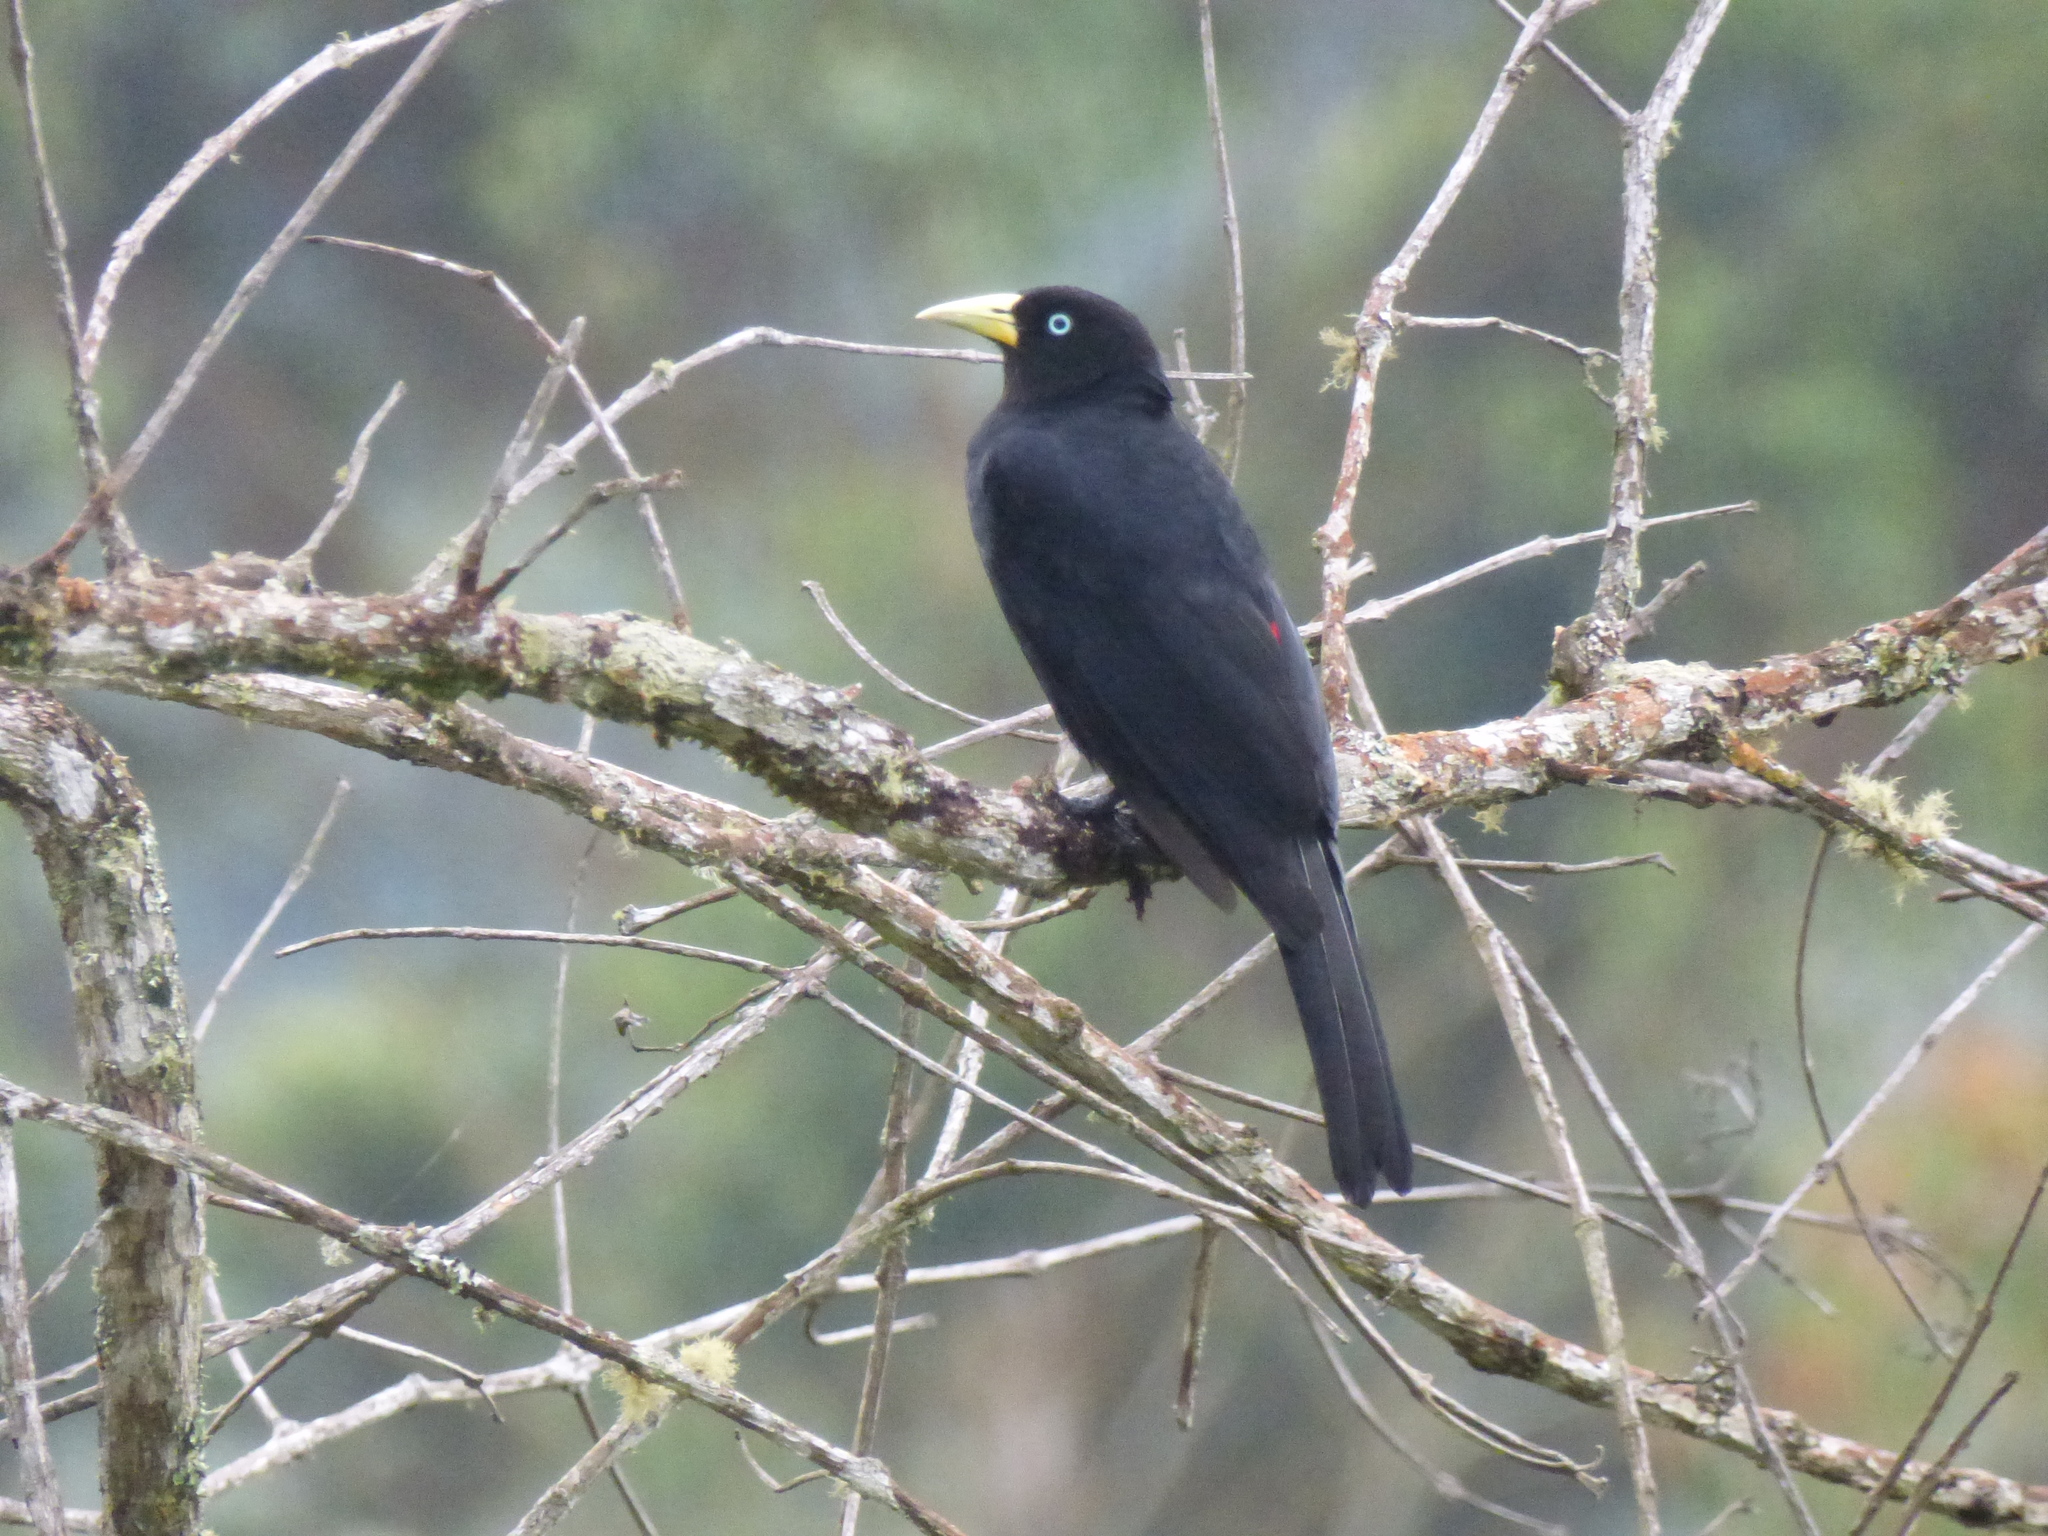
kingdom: Animalia
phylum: Chordata
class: Aves
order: Passeriformes
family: Icteridae
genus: Cacicus
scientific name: Cacicus uropygialis
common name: Scarlet-rumped cacique
